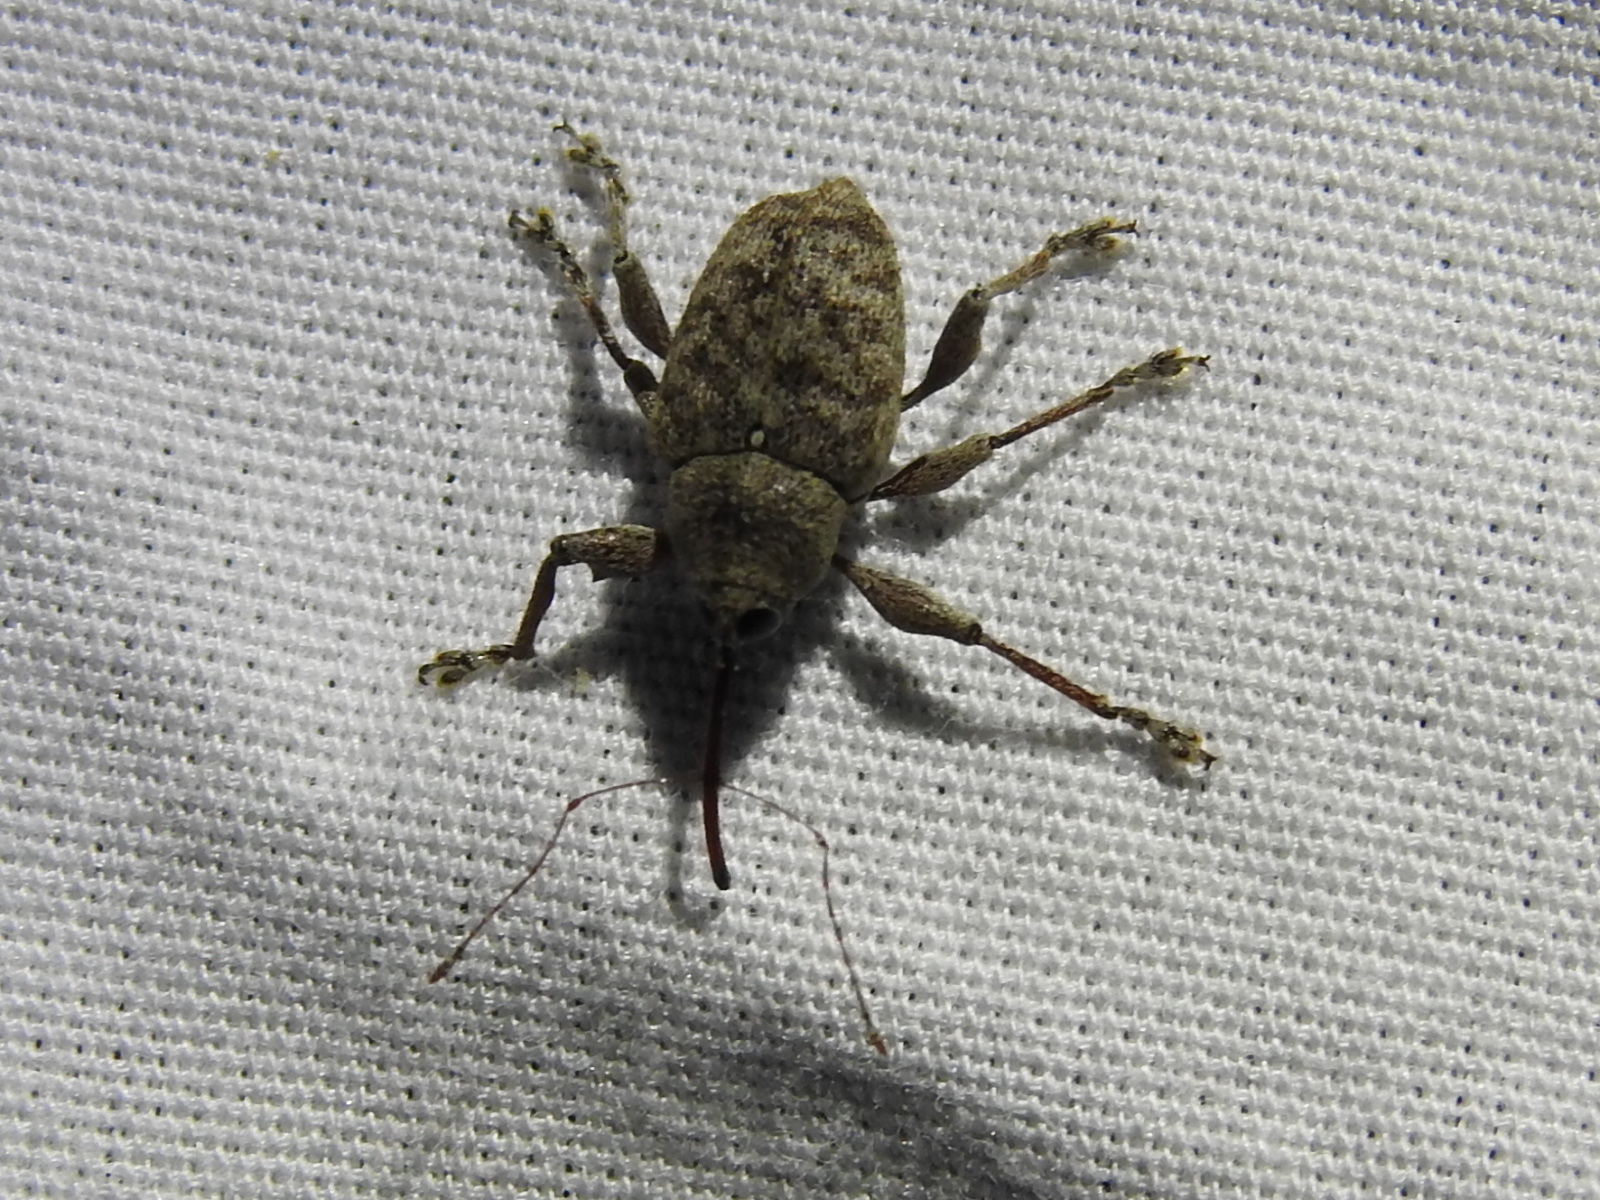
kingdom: Animalia
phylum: Arthropoda
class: Insecta
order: Coleoptera
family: Curculionidae
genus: Curculio
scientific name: Curculio
